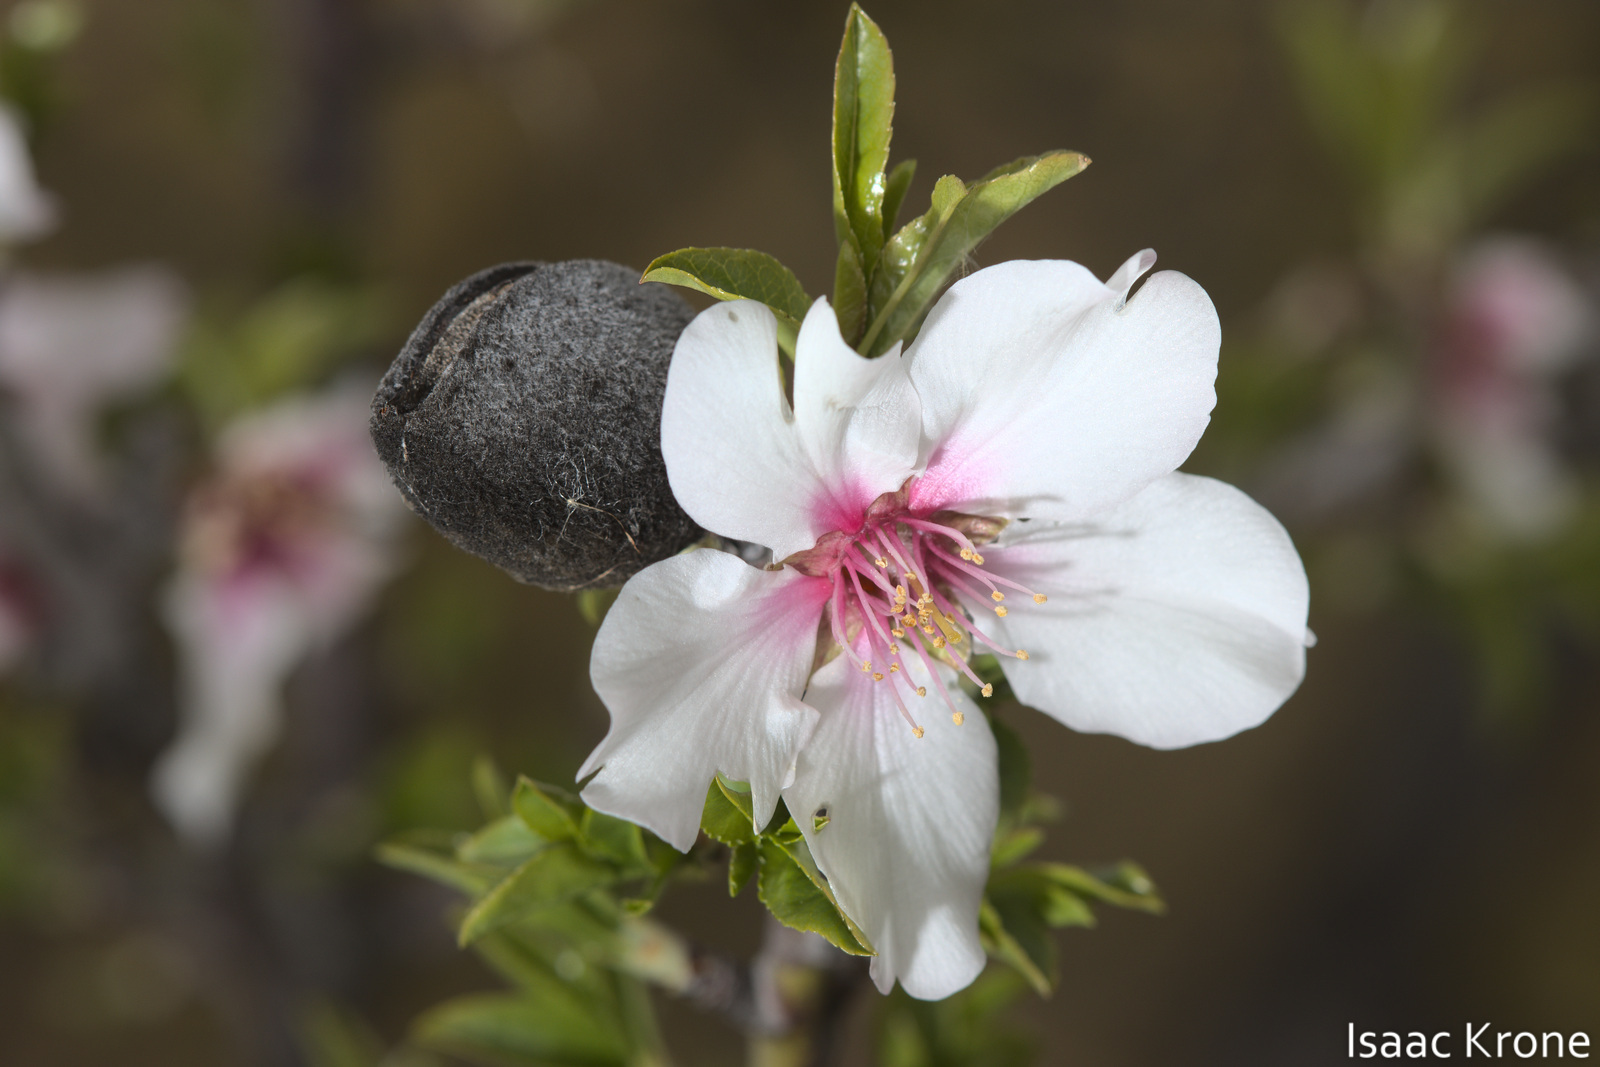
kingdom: Plantae
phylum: Tracheophyta
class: Magnoliopsida
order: Rosales
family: Rosaceae
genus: Prunus
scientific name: Prunus amygdalus
